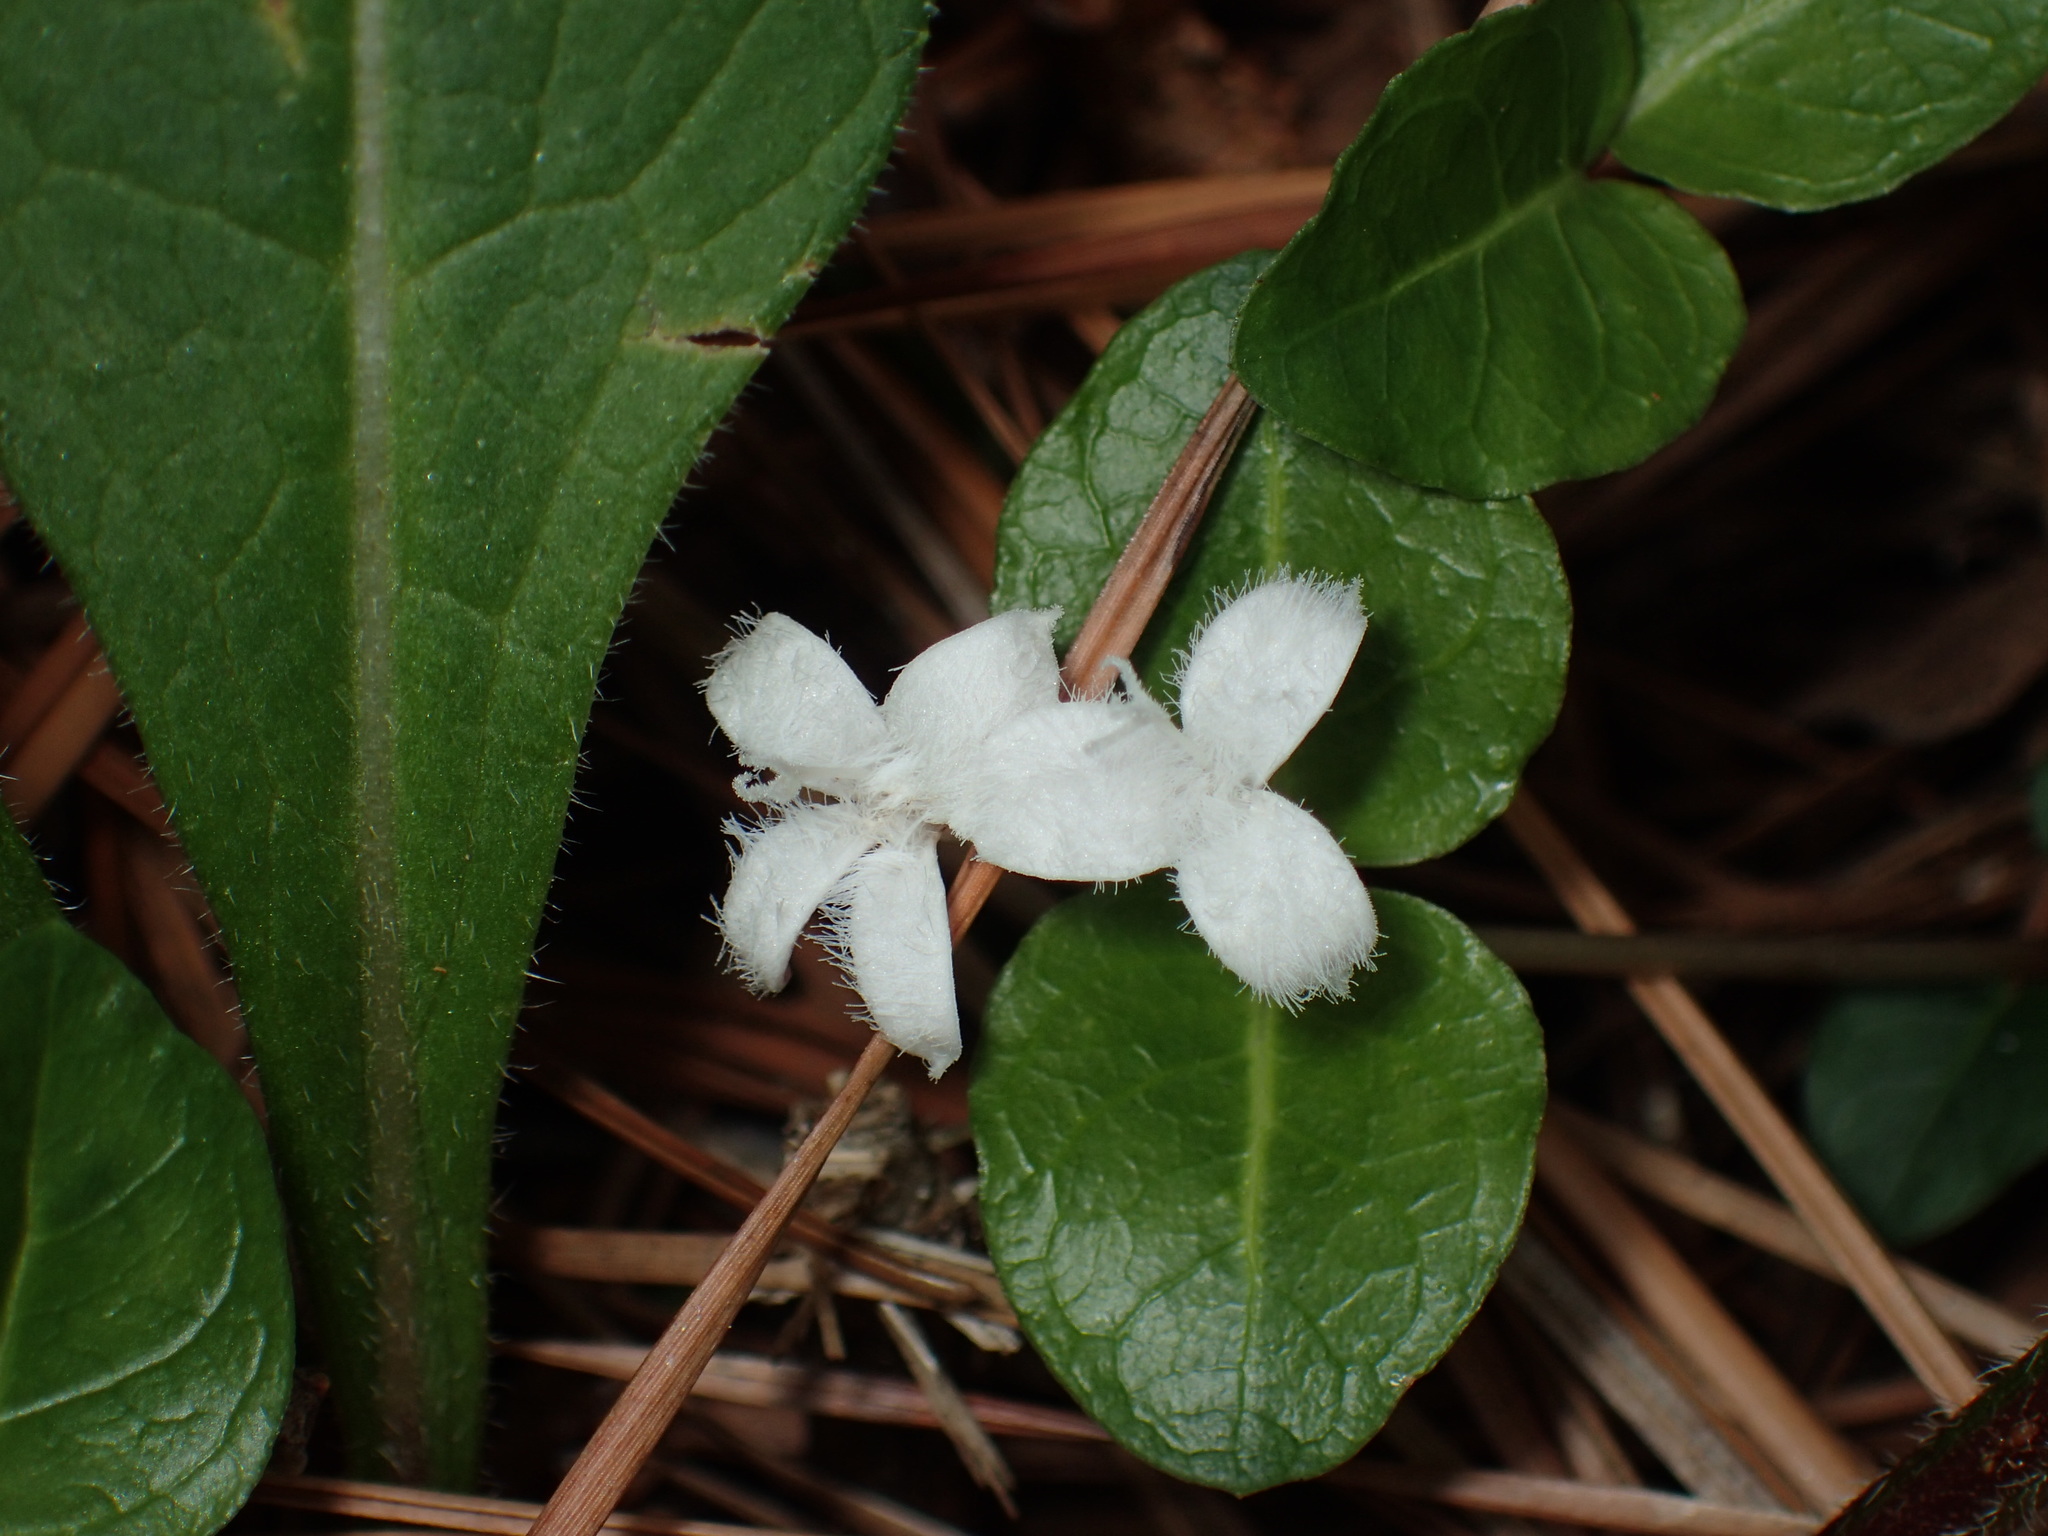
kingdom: Plantae
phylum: Tracheophyta
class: Magnoliopsida
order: Gentianales
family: Rubiaceae
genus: Mitchella
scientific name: Mitchella repens
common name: Partridge-berry
